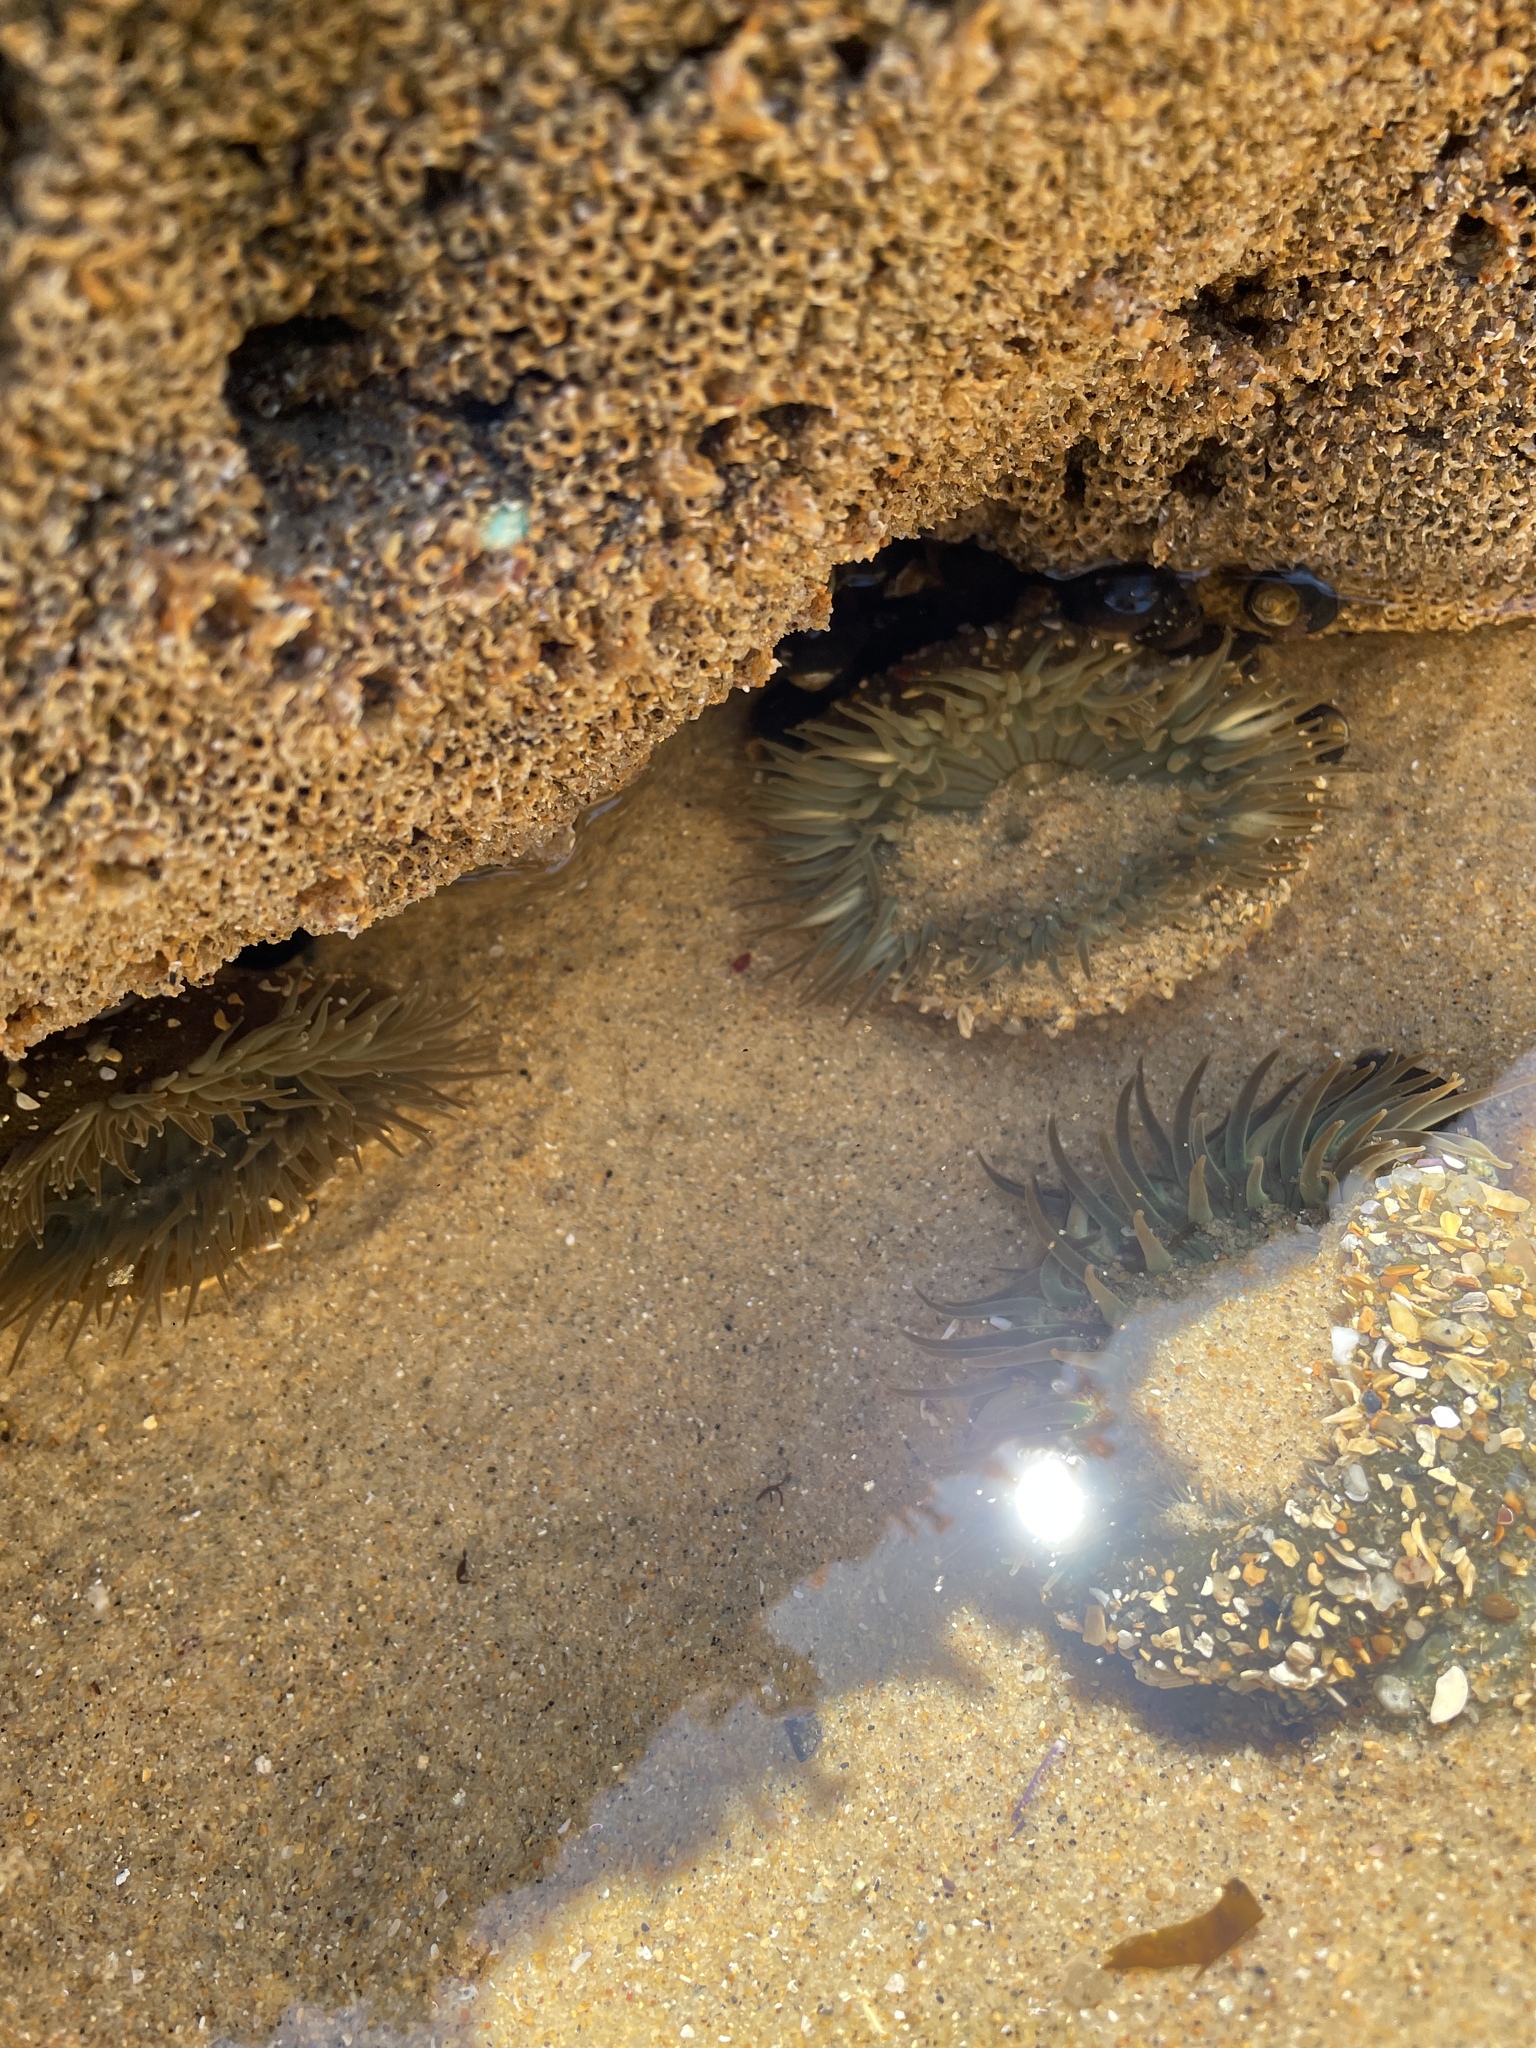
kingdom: Animalia
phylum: Cnidaria
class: Anthozoa
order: Actiniaria
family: Actiniidae
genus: Anthopleura
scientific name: Anthopleura sola
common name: Sun anemone
